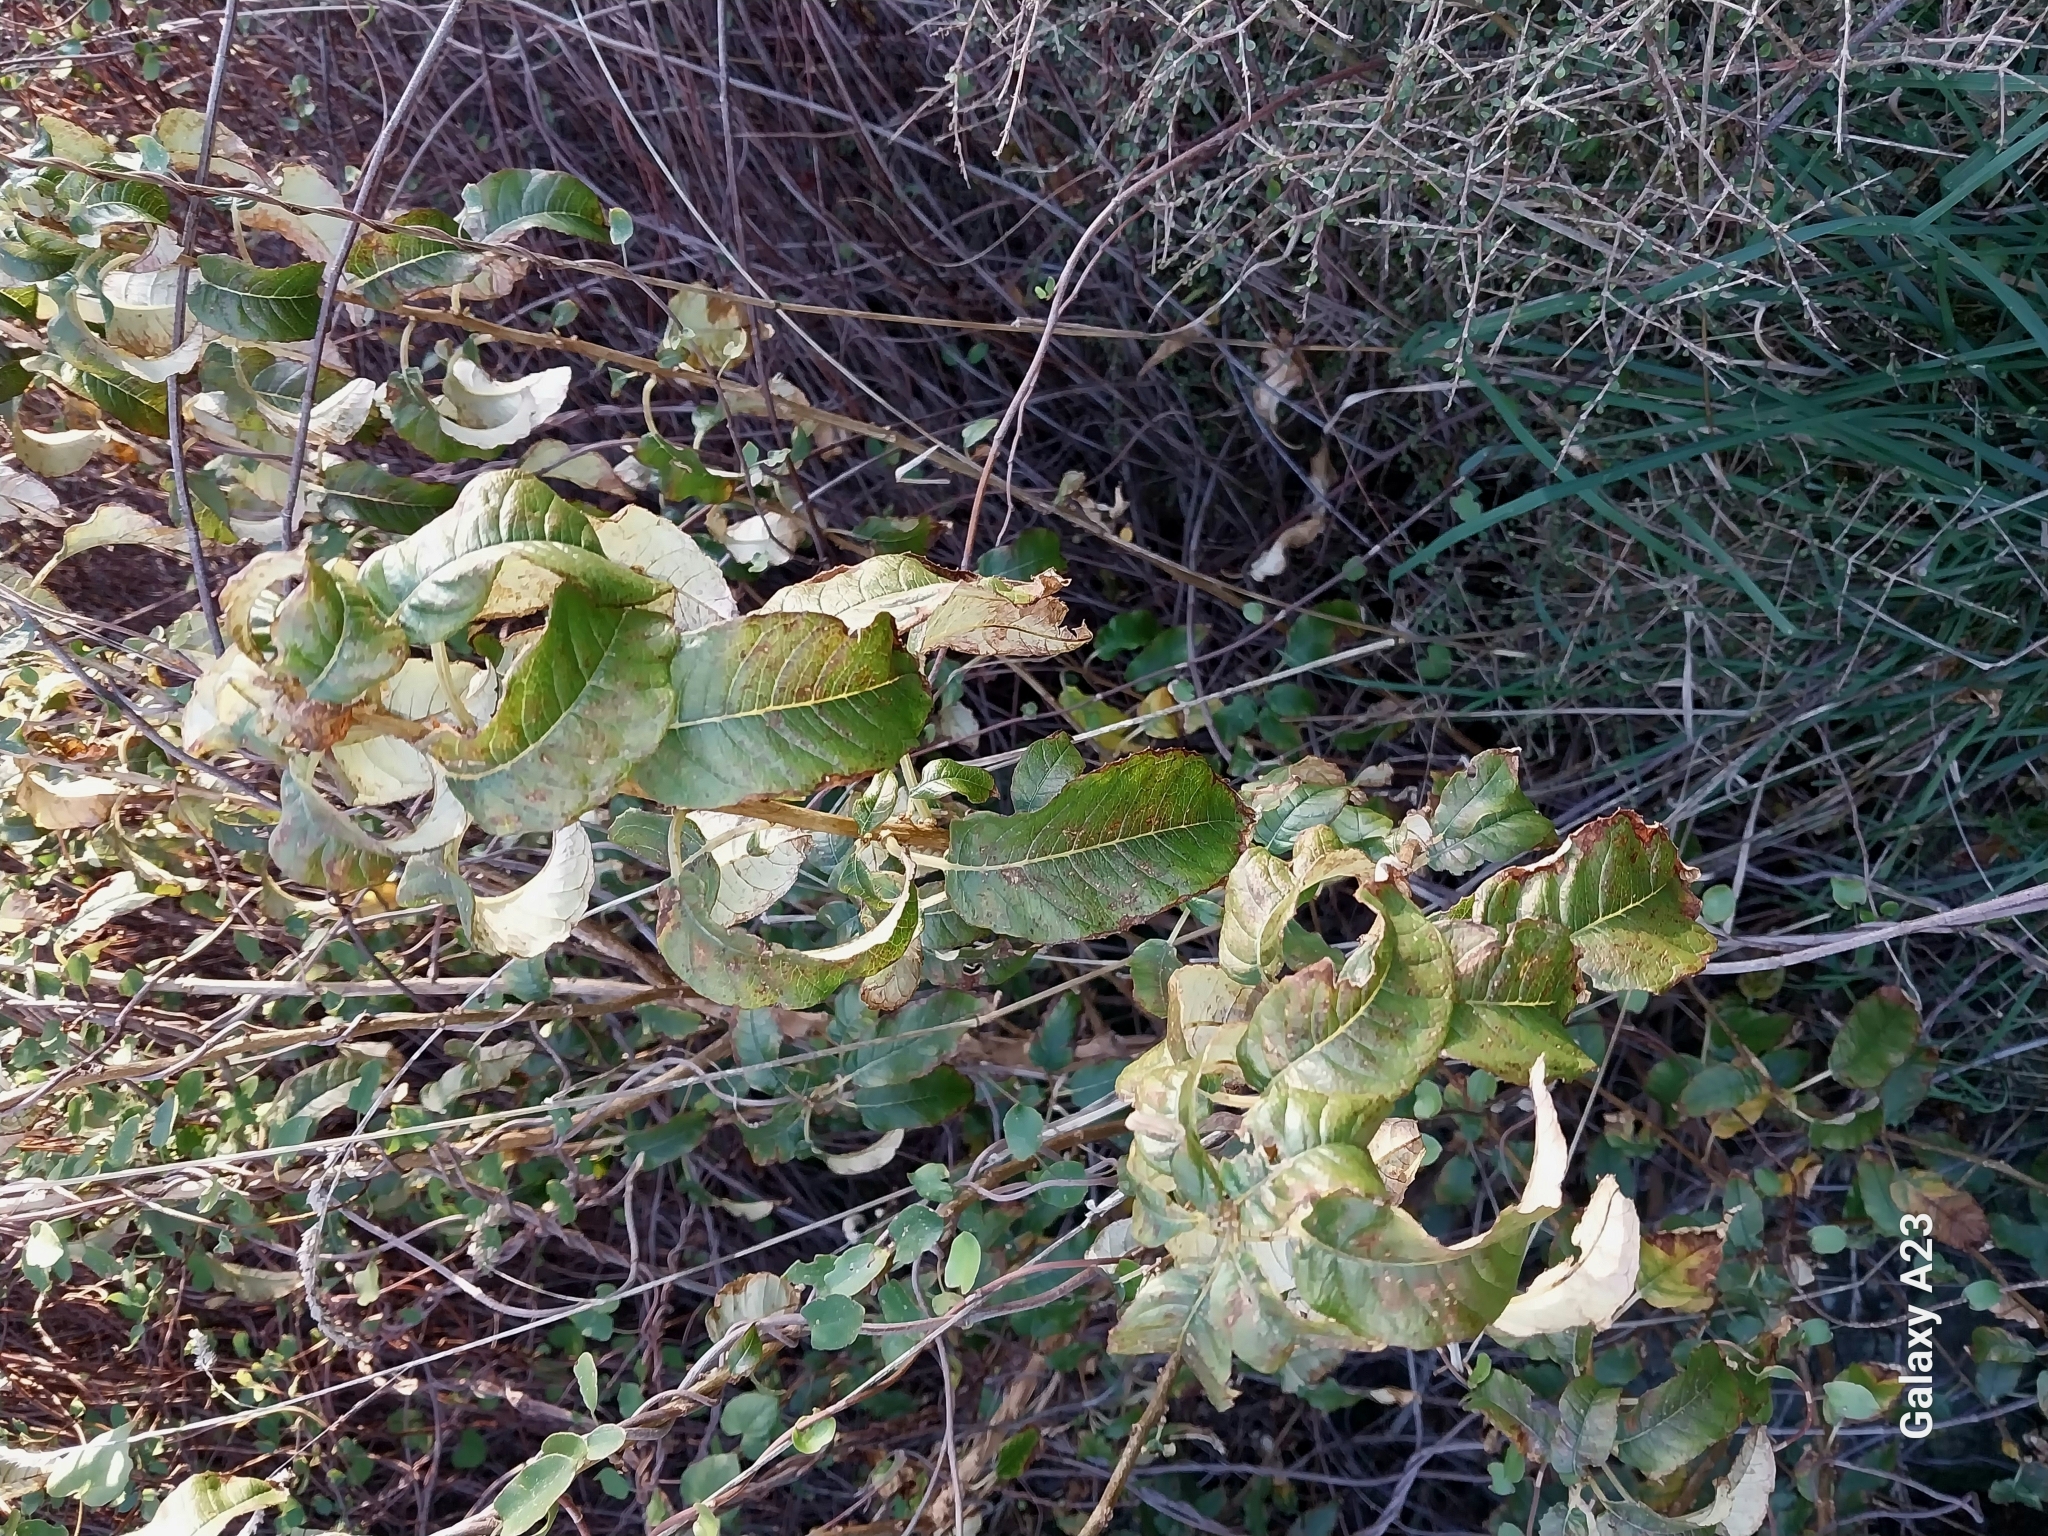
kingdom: Plantae
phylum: Tracheophyta
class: Magnoliopsida
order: Myrtales
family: Onagraceae
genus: Fuchsia
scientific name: Fuchsia excorticata
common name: Tree fuchsia
